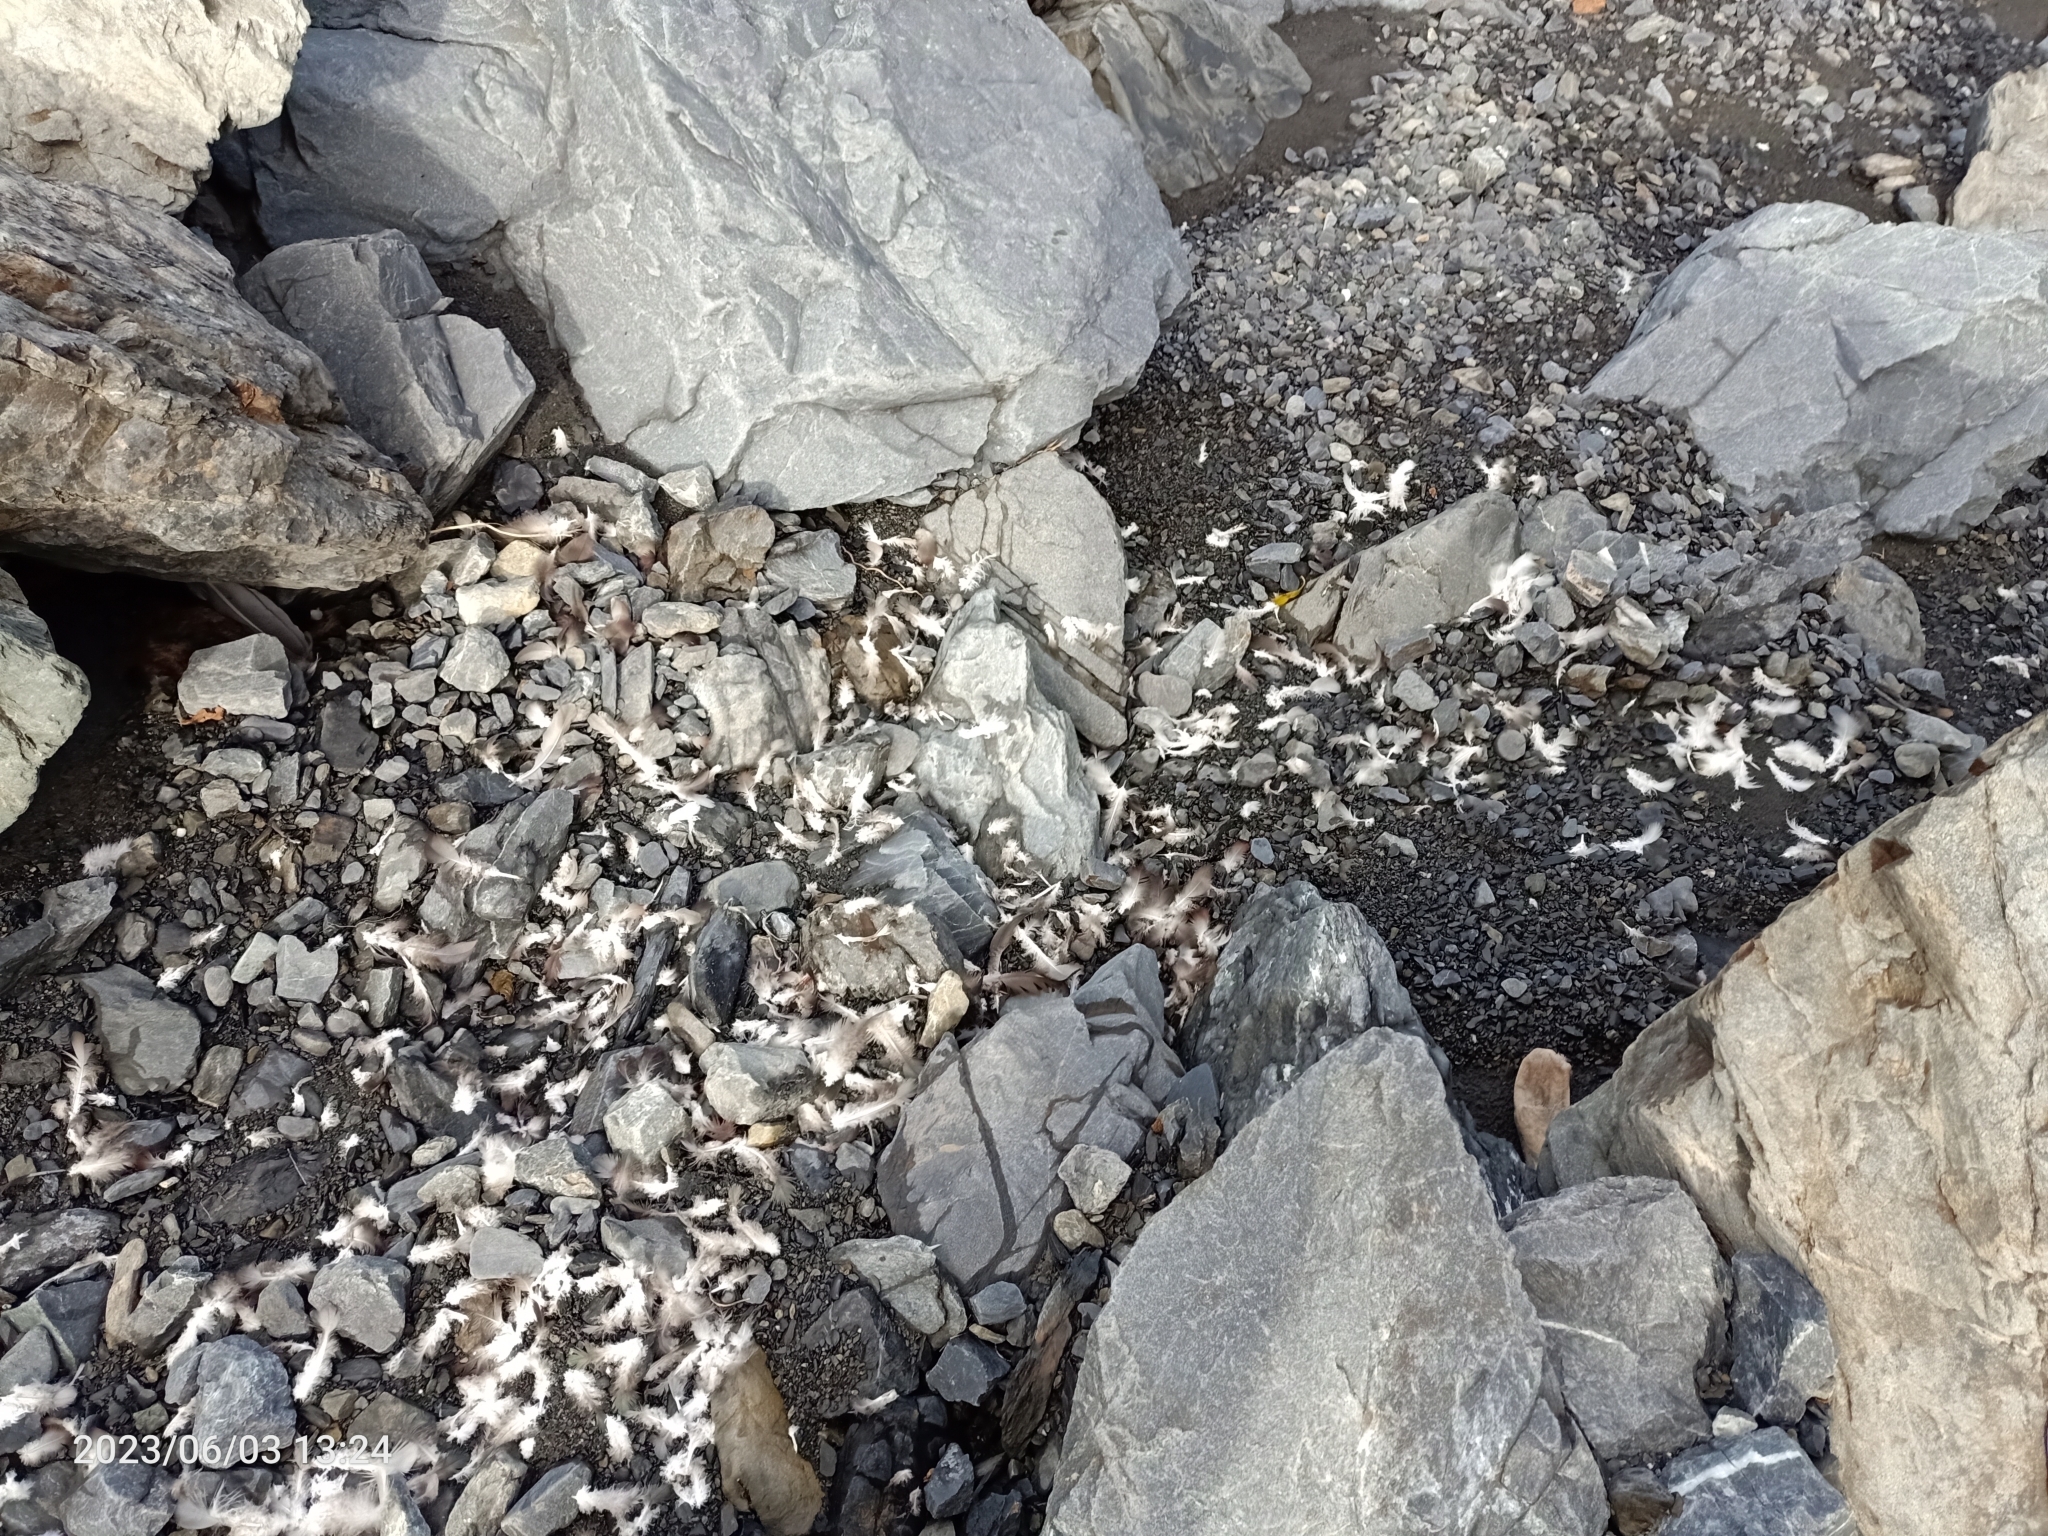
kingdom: Animalia
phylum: Chordata
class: Aves
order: Columbiformes
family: Columbidae
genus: Hemiphaga
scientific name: Hemiphaga novaeseelandiae
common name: New zealand pigeon
